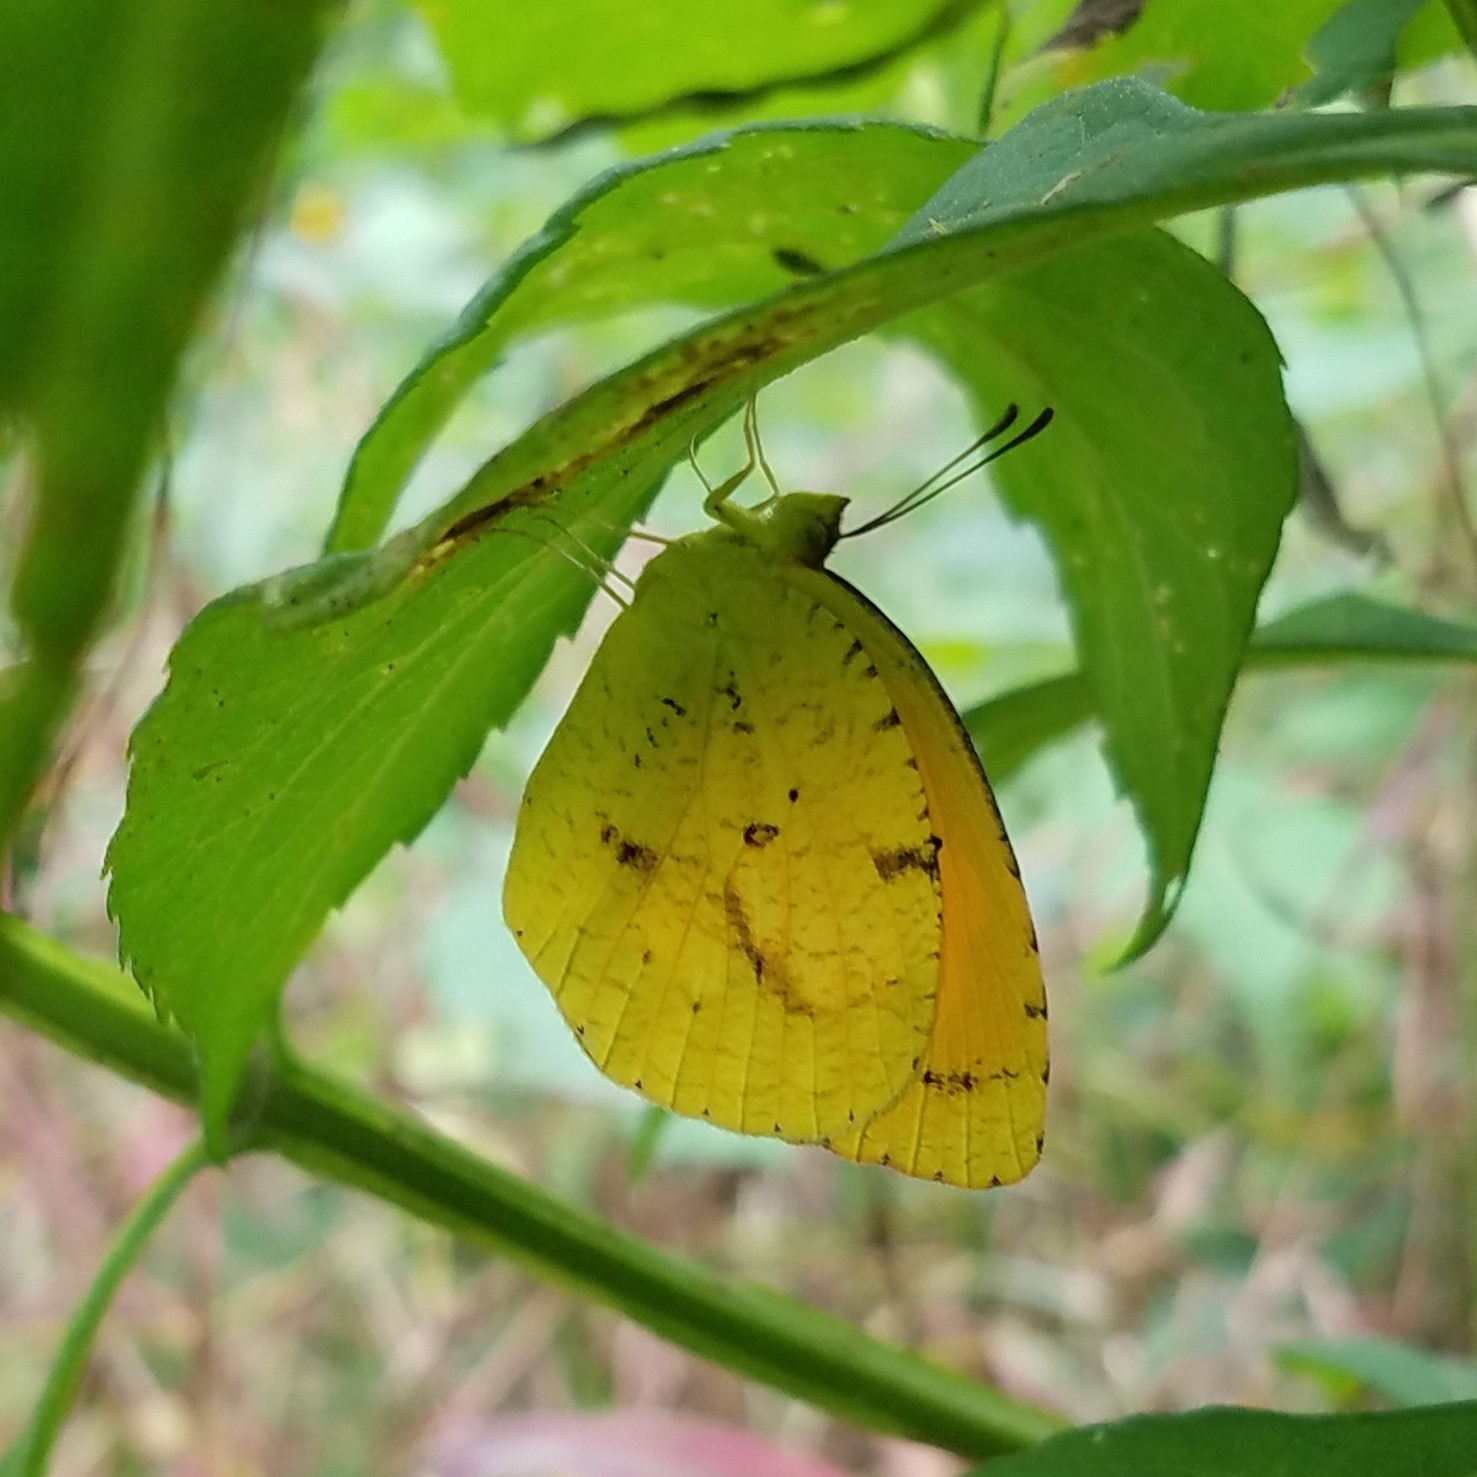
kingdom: Animalia
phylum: Arthropoda
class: Insecta
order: Lepidoptera
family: Pieridae
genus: Abaeis
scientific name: Abaeis nicippe
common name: Sleepy orange
